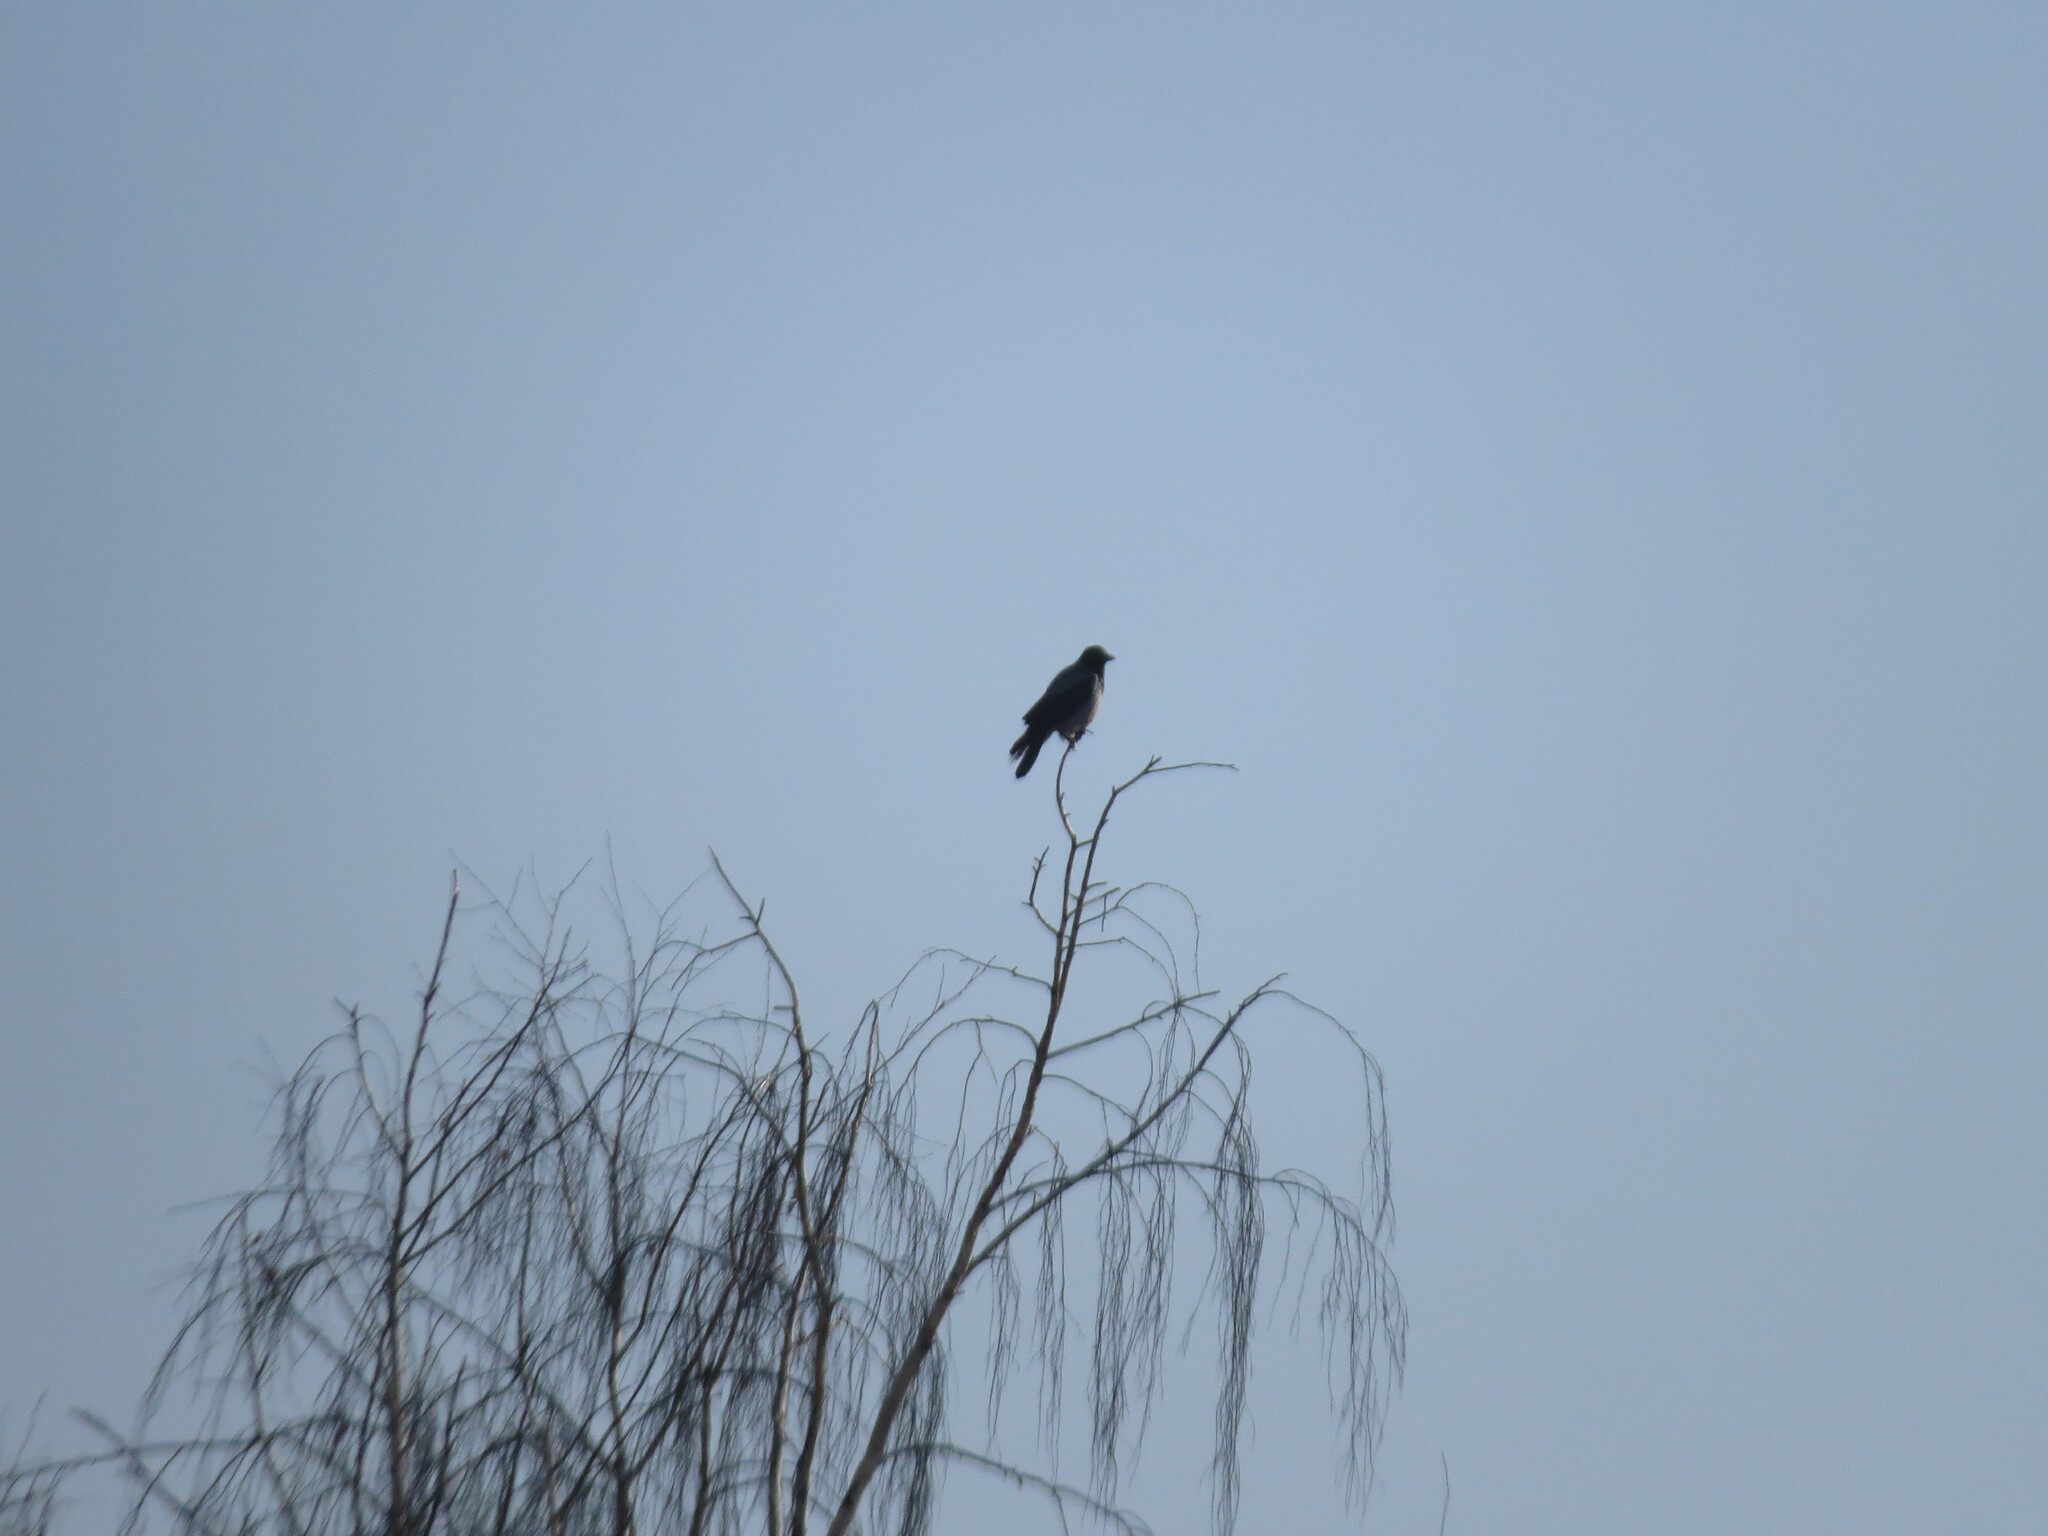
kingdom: Animalia
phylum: Chordata
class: Aves
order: Passeriformes
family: Corvidae
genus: Corvus
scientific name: Corvus cornix
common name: Hooded crow
